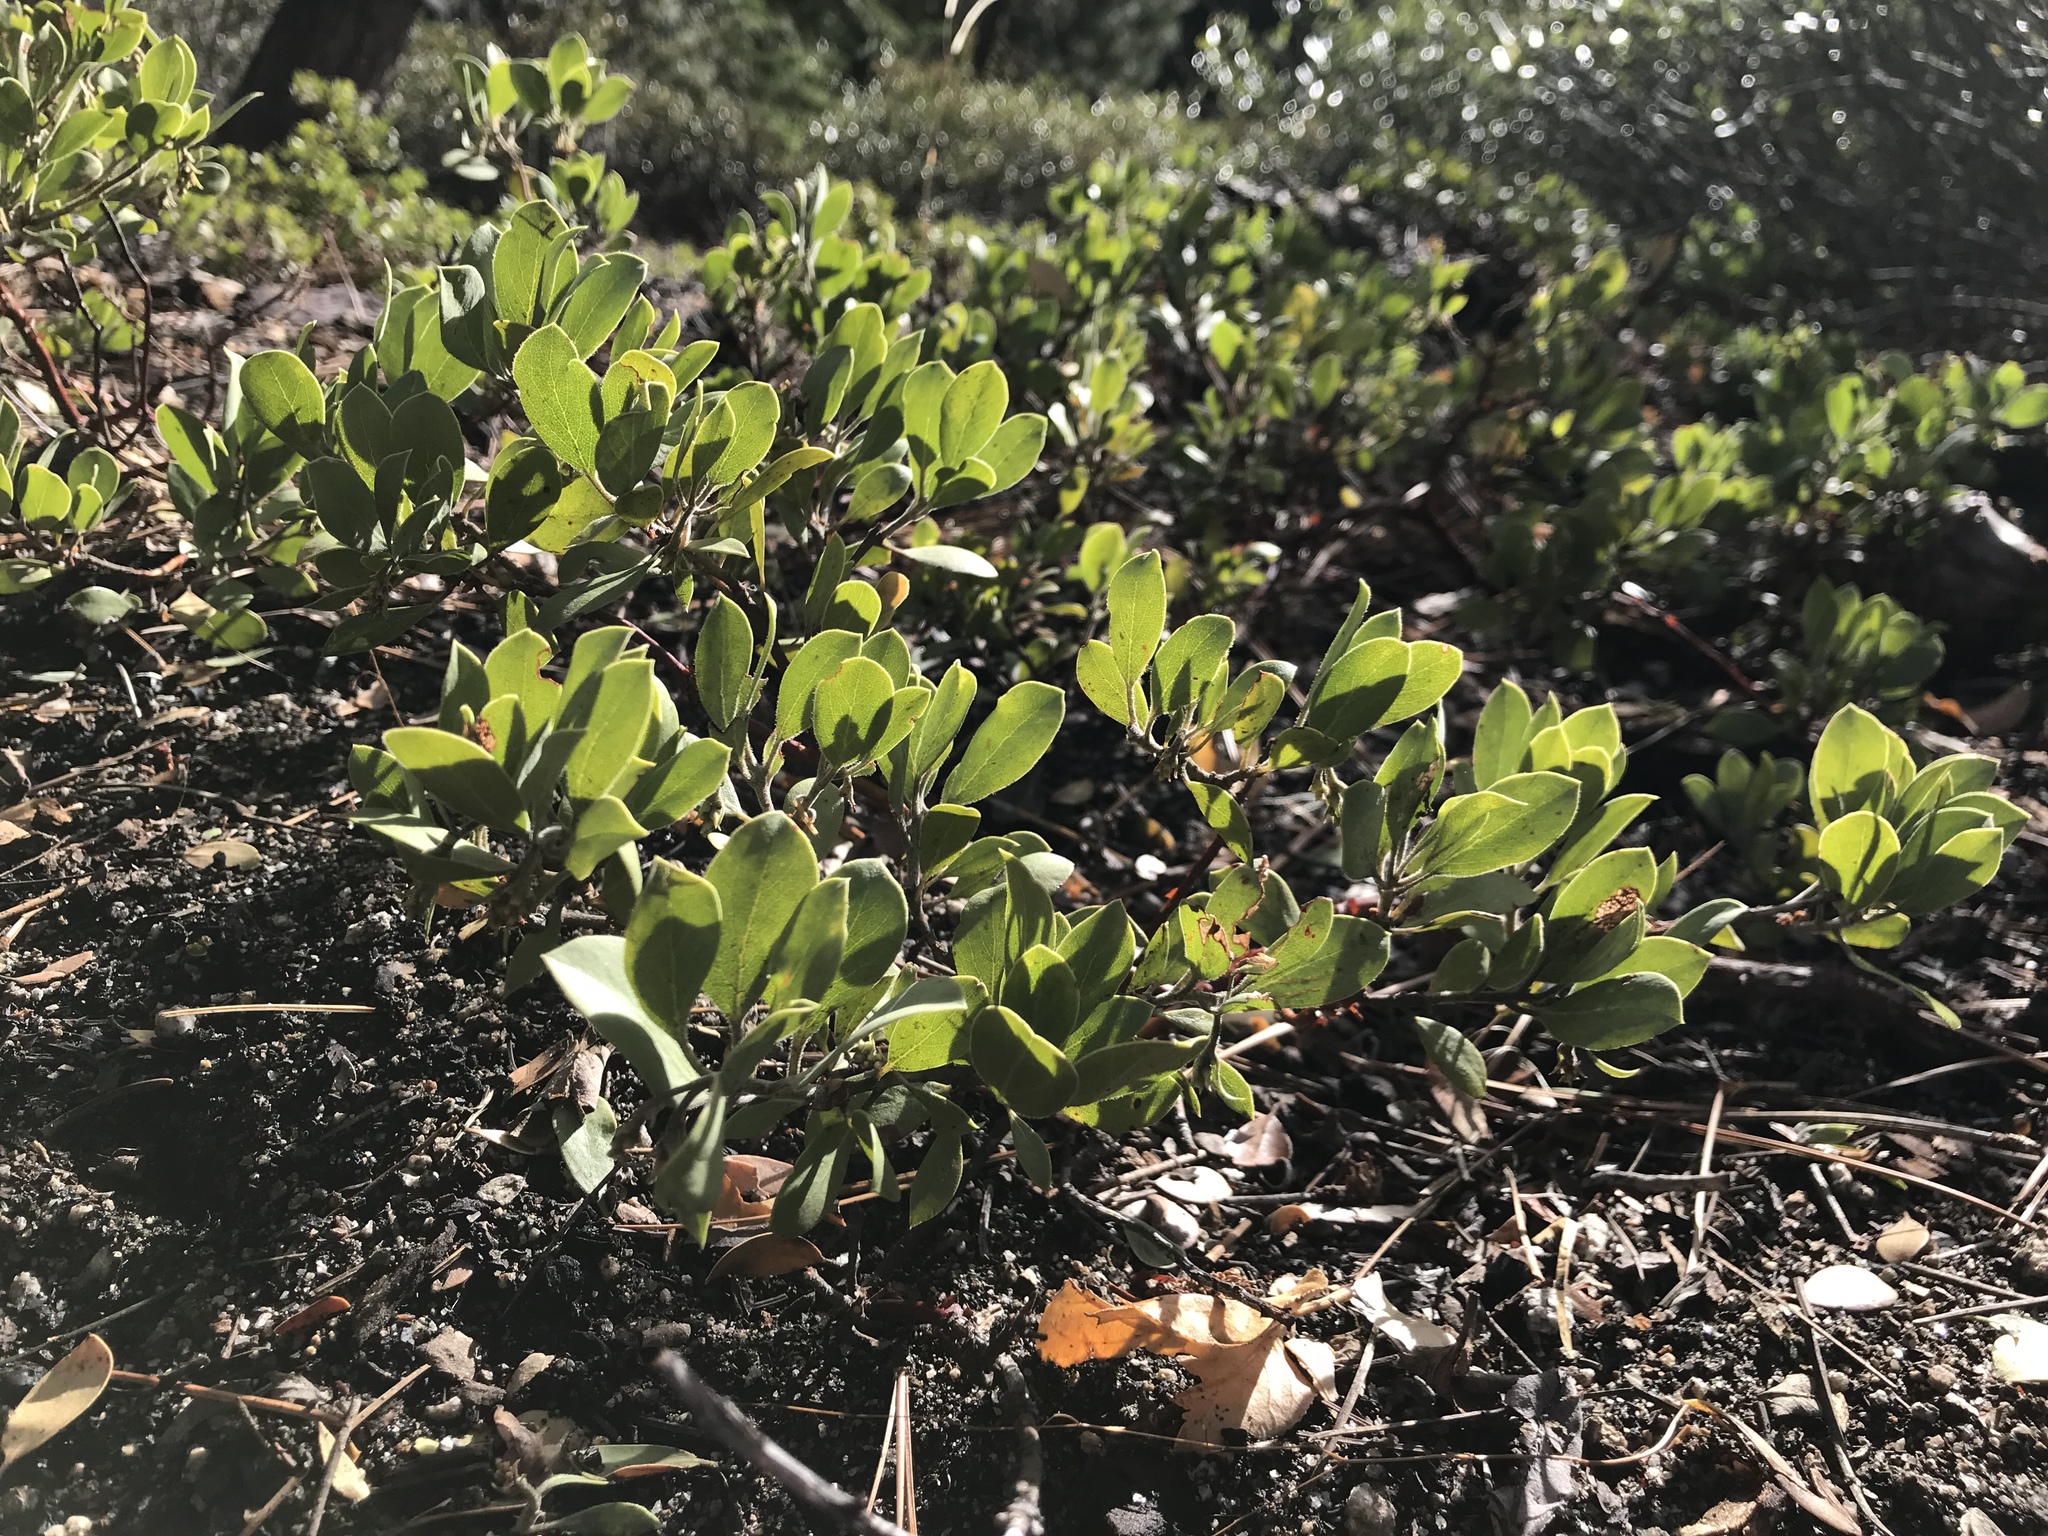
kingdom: Plantae
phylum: Tracheophyta
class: Magnoliopsida
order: Ericales
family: Ericaceae
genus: Arctostaphylos
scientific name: Arctostaphylos nevadensis
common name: Pinemat manzanita
